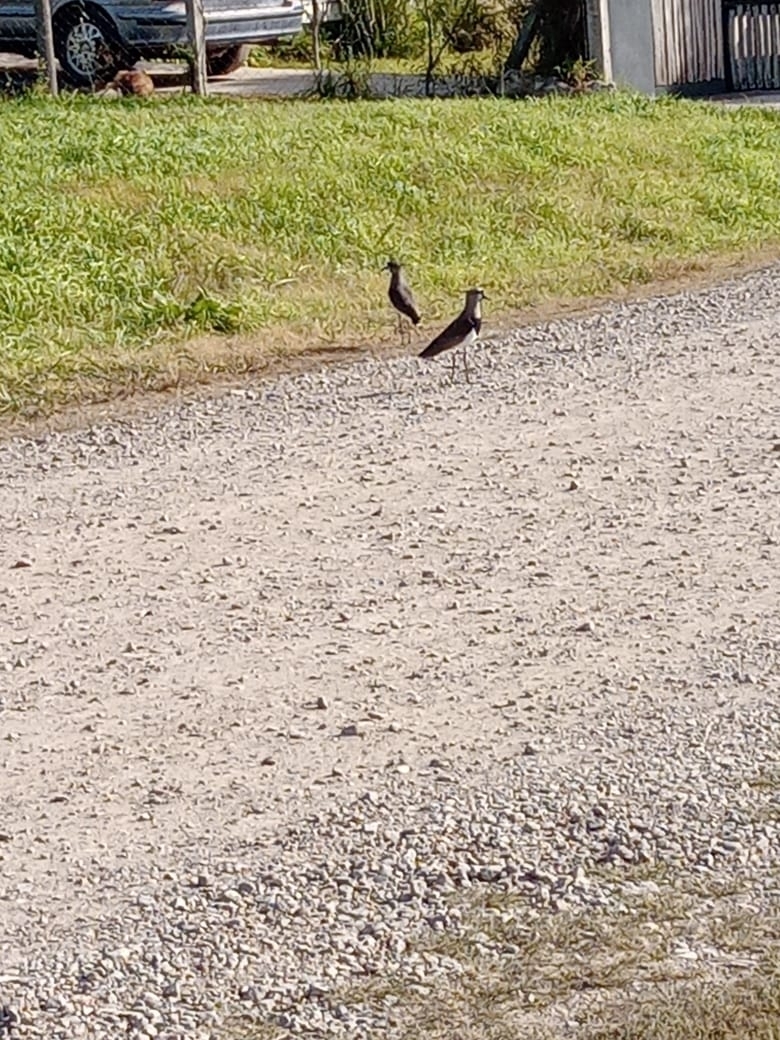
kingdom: Animalia
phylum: Chordata
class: Aves
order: Charadriiformes
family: Charadriidae
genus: Vanellus
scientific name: Vanellus chilensis
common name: Southern lapwing
